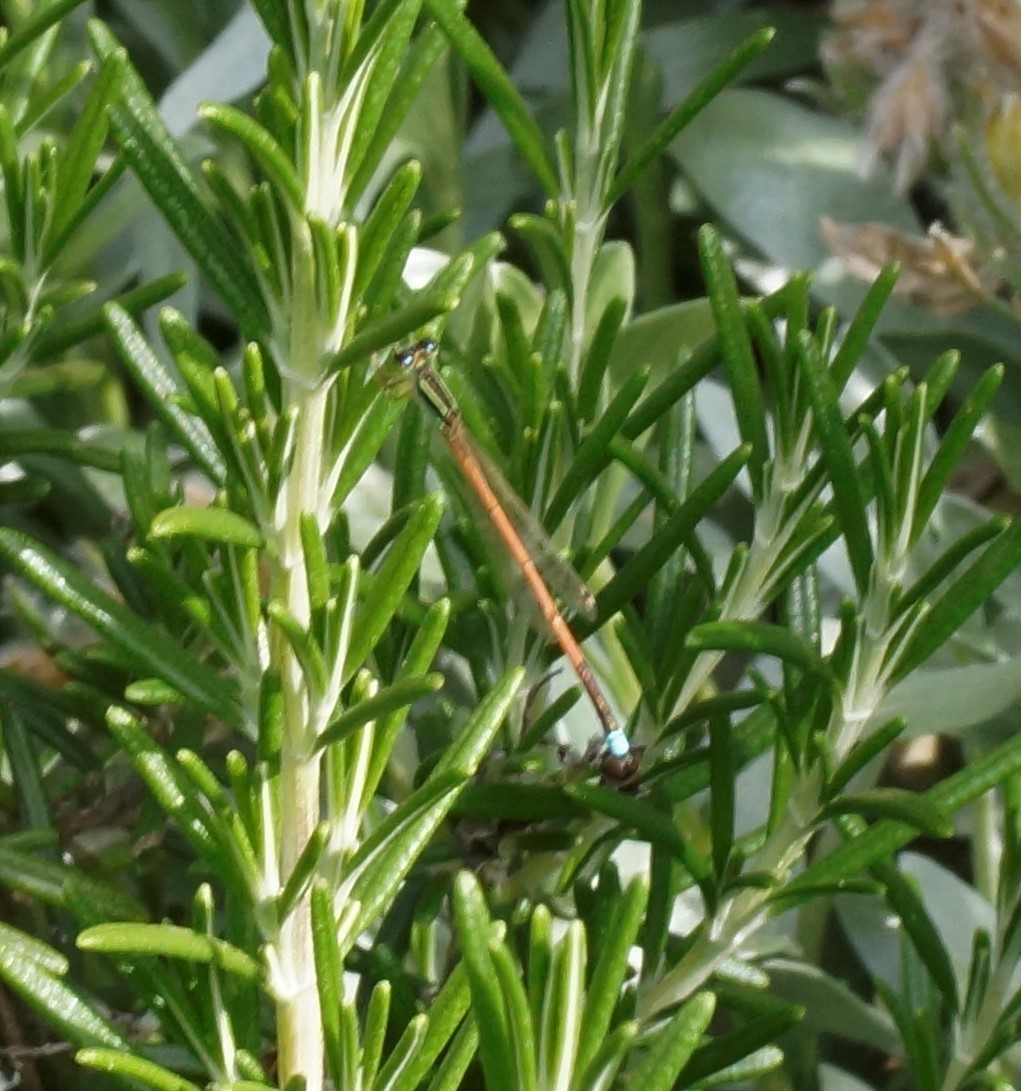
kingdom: Animalia
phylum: Arthropoda
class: Insecta
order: Odonata
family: Coenagrionidae
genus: Ischnura
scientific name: Ischnura aurora
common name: Gossamer damselfly
